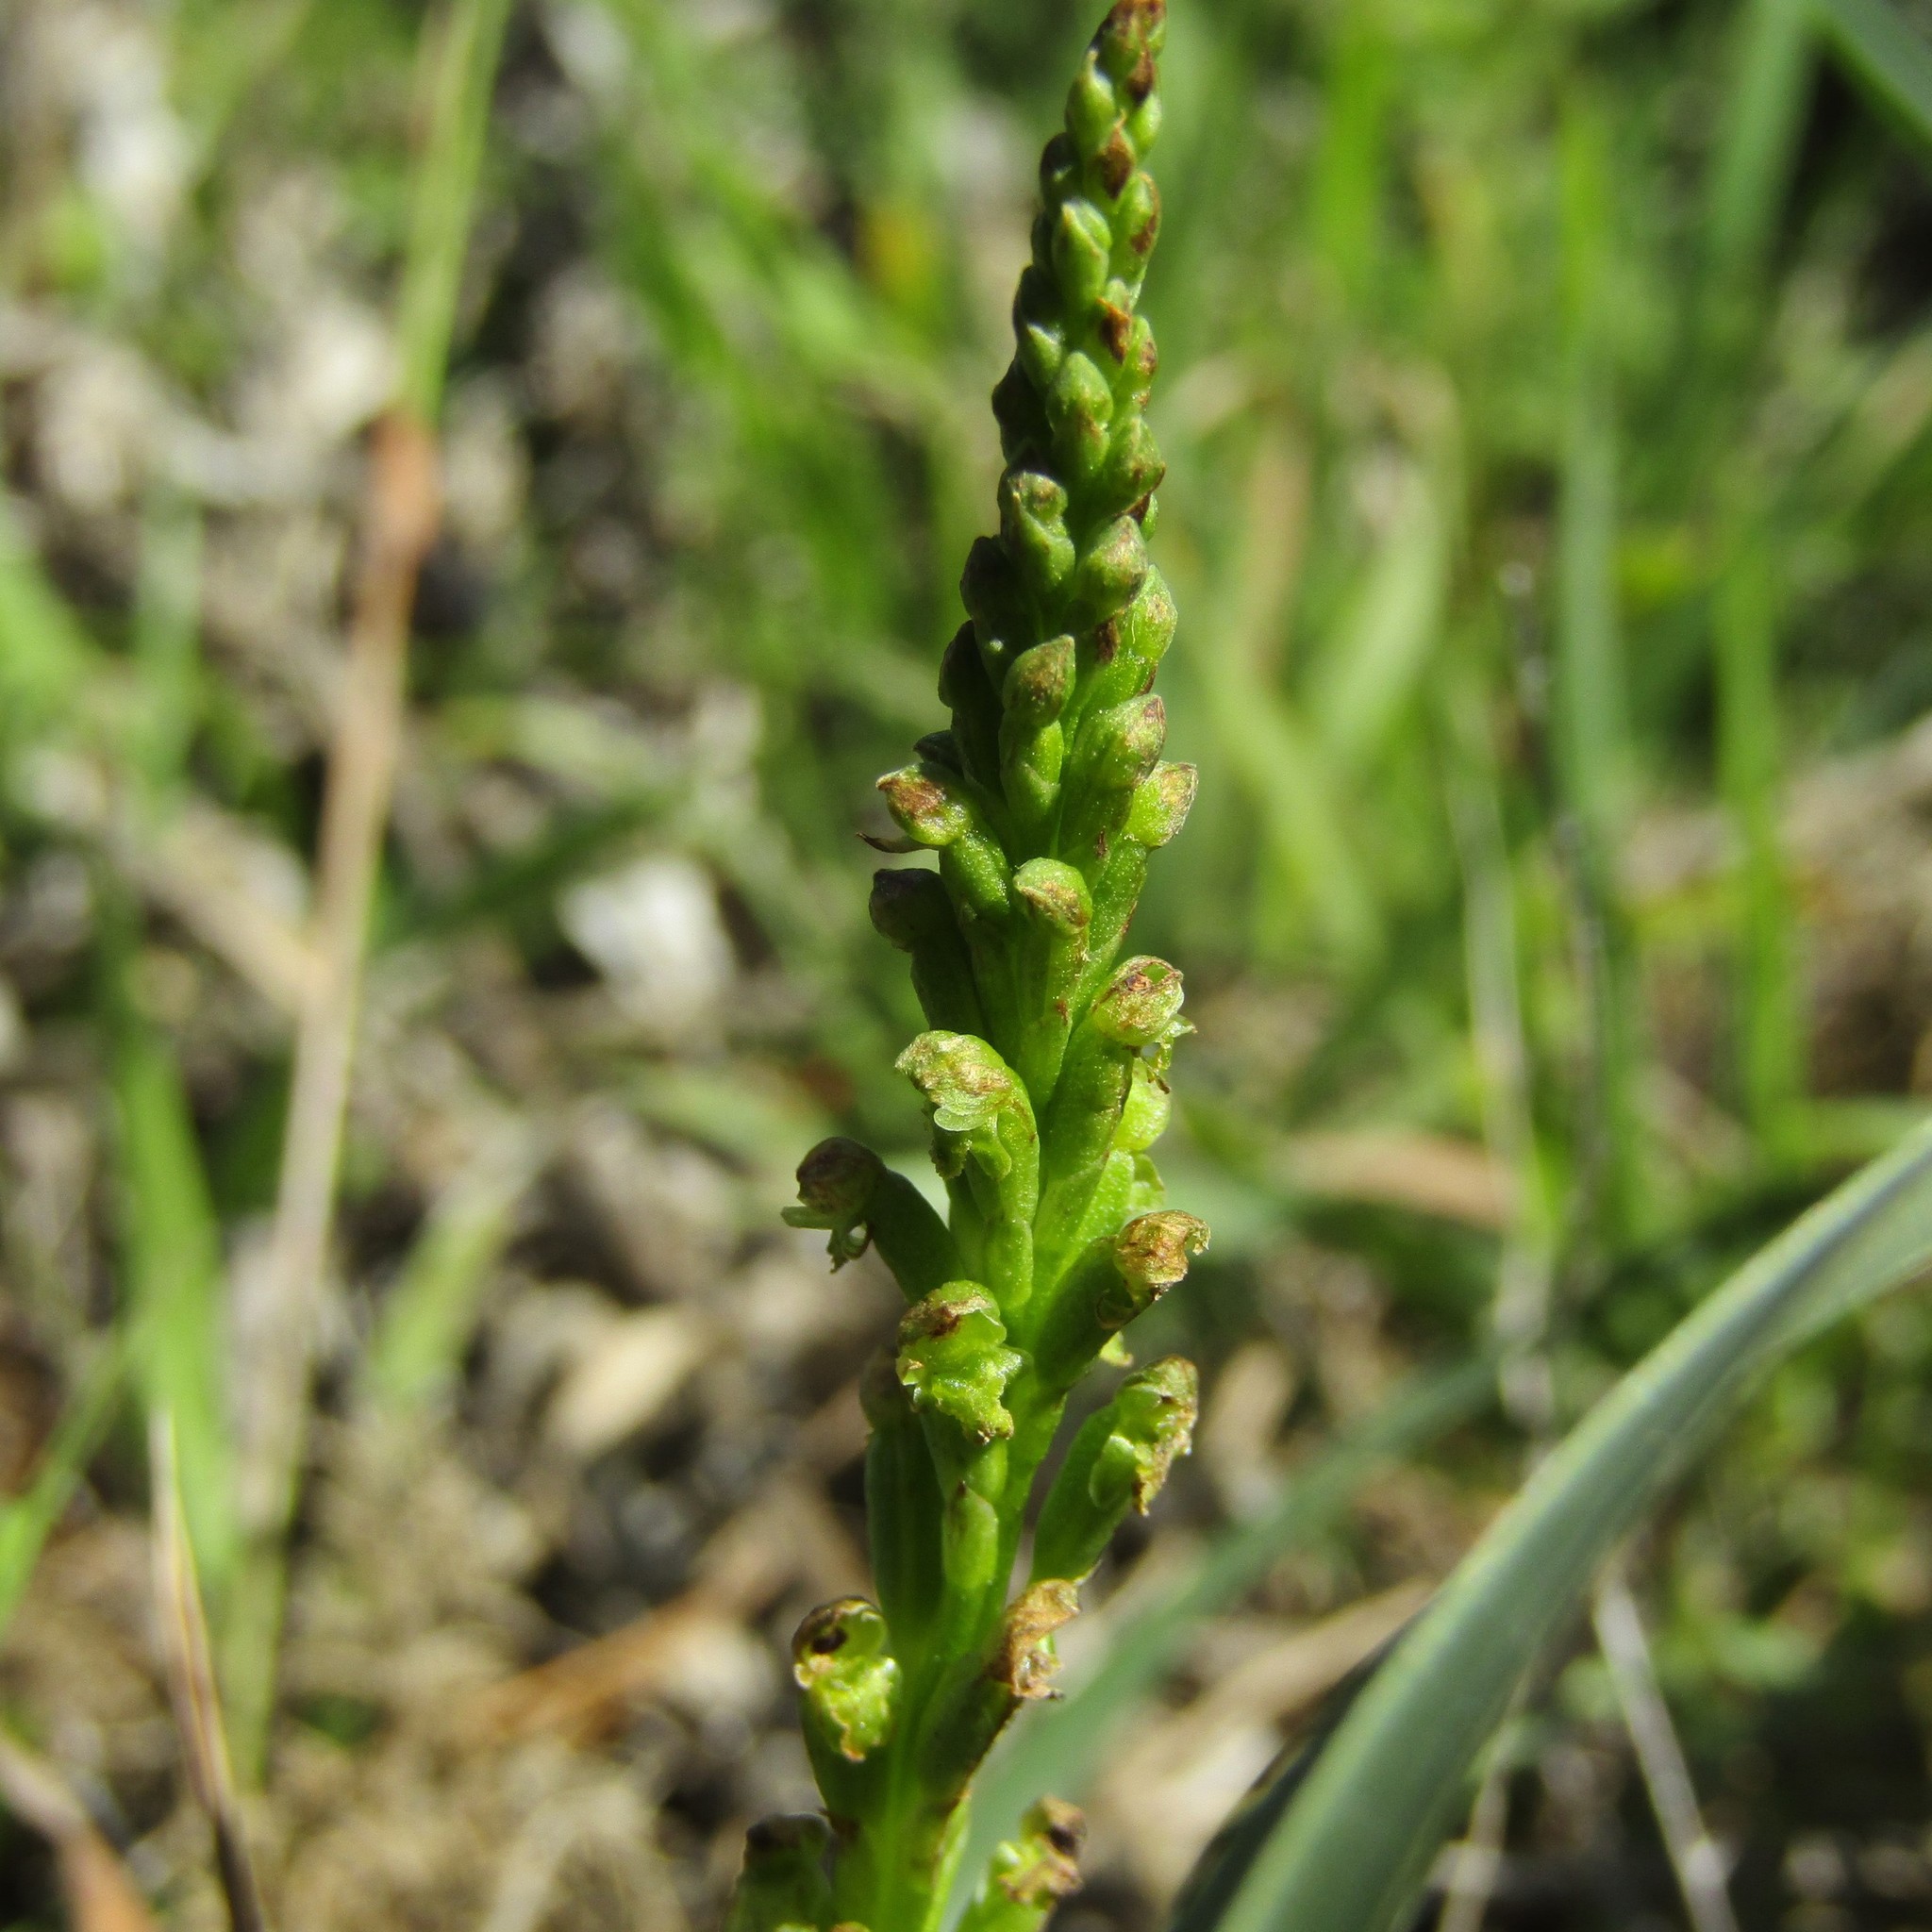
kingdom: Plantae
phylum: Tracheophyta
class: Liliopsida
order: Asparagales
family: Orchidaceae
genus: Microtis
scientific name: Microtis unifolia
